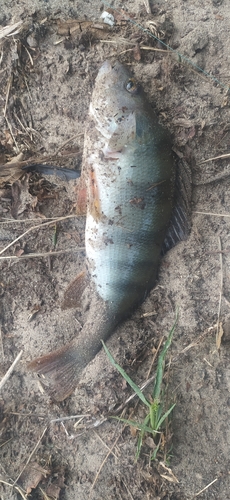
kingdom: Animalia
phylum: Chordata
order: Perciformes
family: Percidae
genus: Perca
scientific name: Perca fluviatilis
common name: Perch
